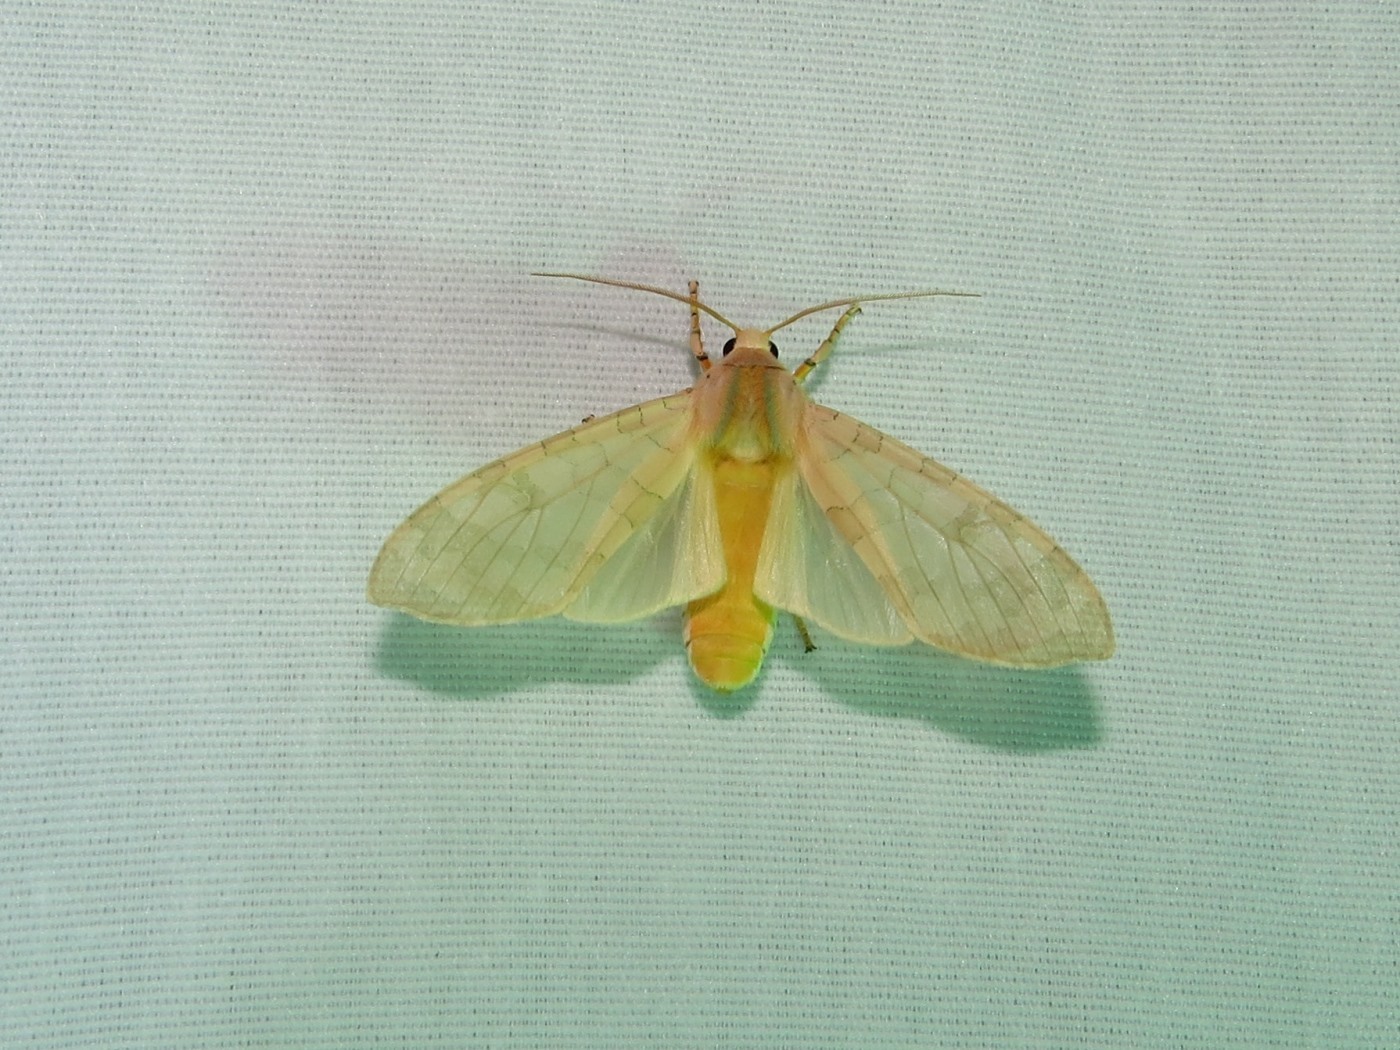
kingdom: Animalia
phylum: Arthropoda
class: Insecta
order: Lepidoptera
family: Erebidae
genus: Halysidota
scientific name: Halysidota
